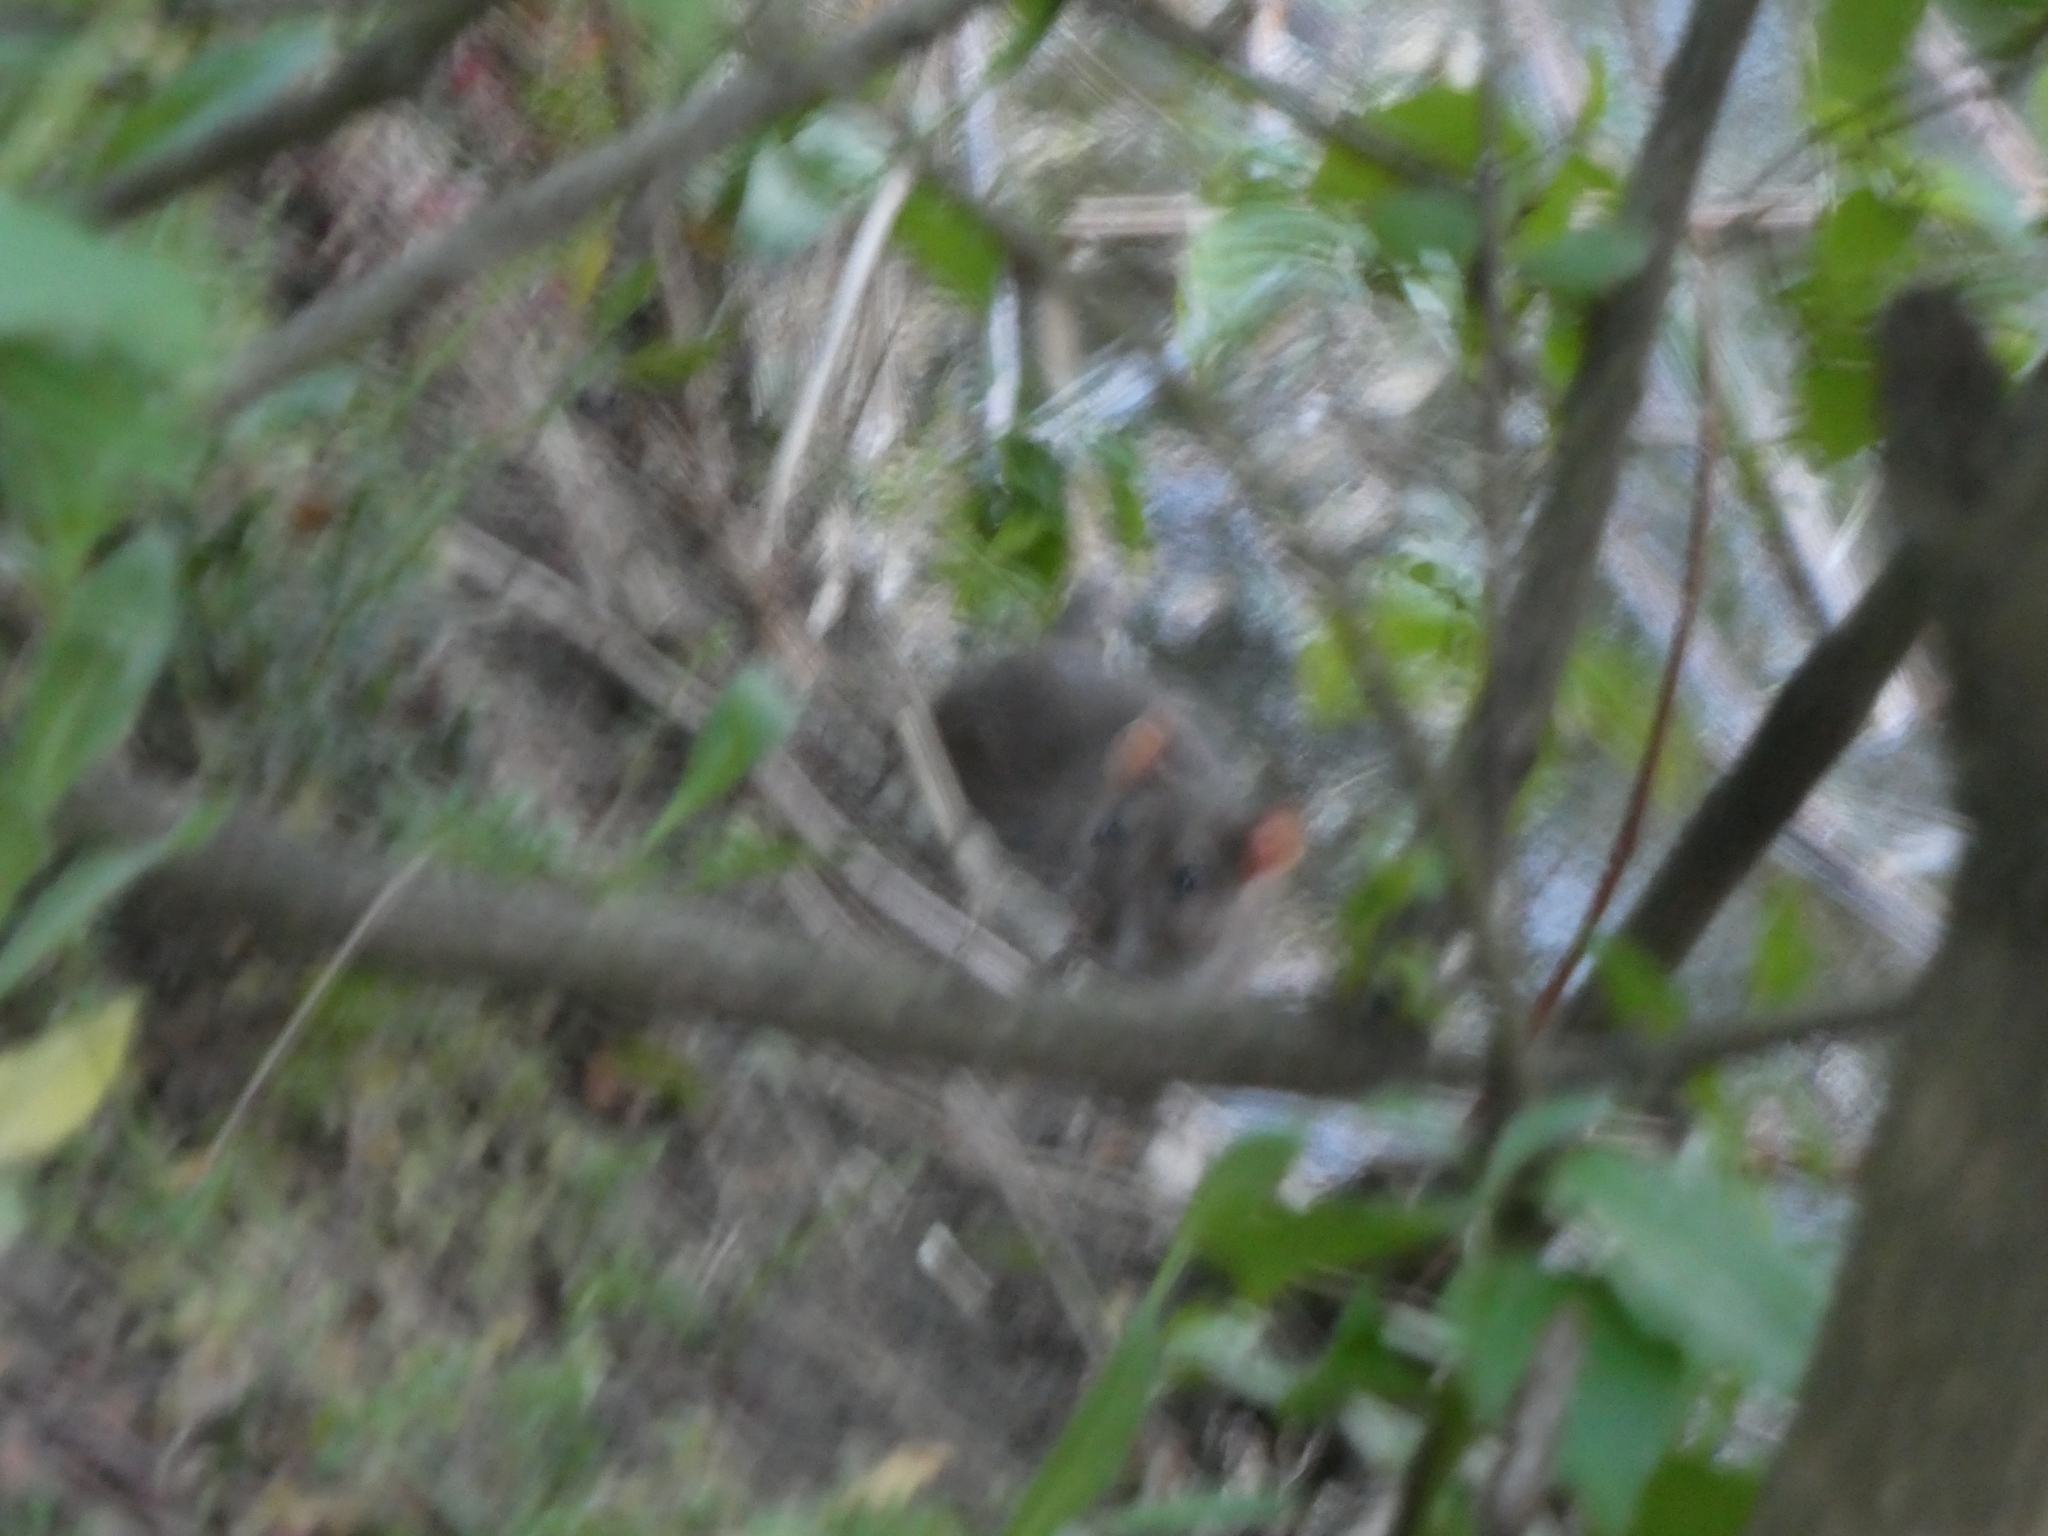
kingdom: Animalia
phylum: Chordata
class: Mammalia
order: Rodentia
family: Muridae
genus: Rattus
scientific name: Rattus norvegicus
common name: Brown rat
